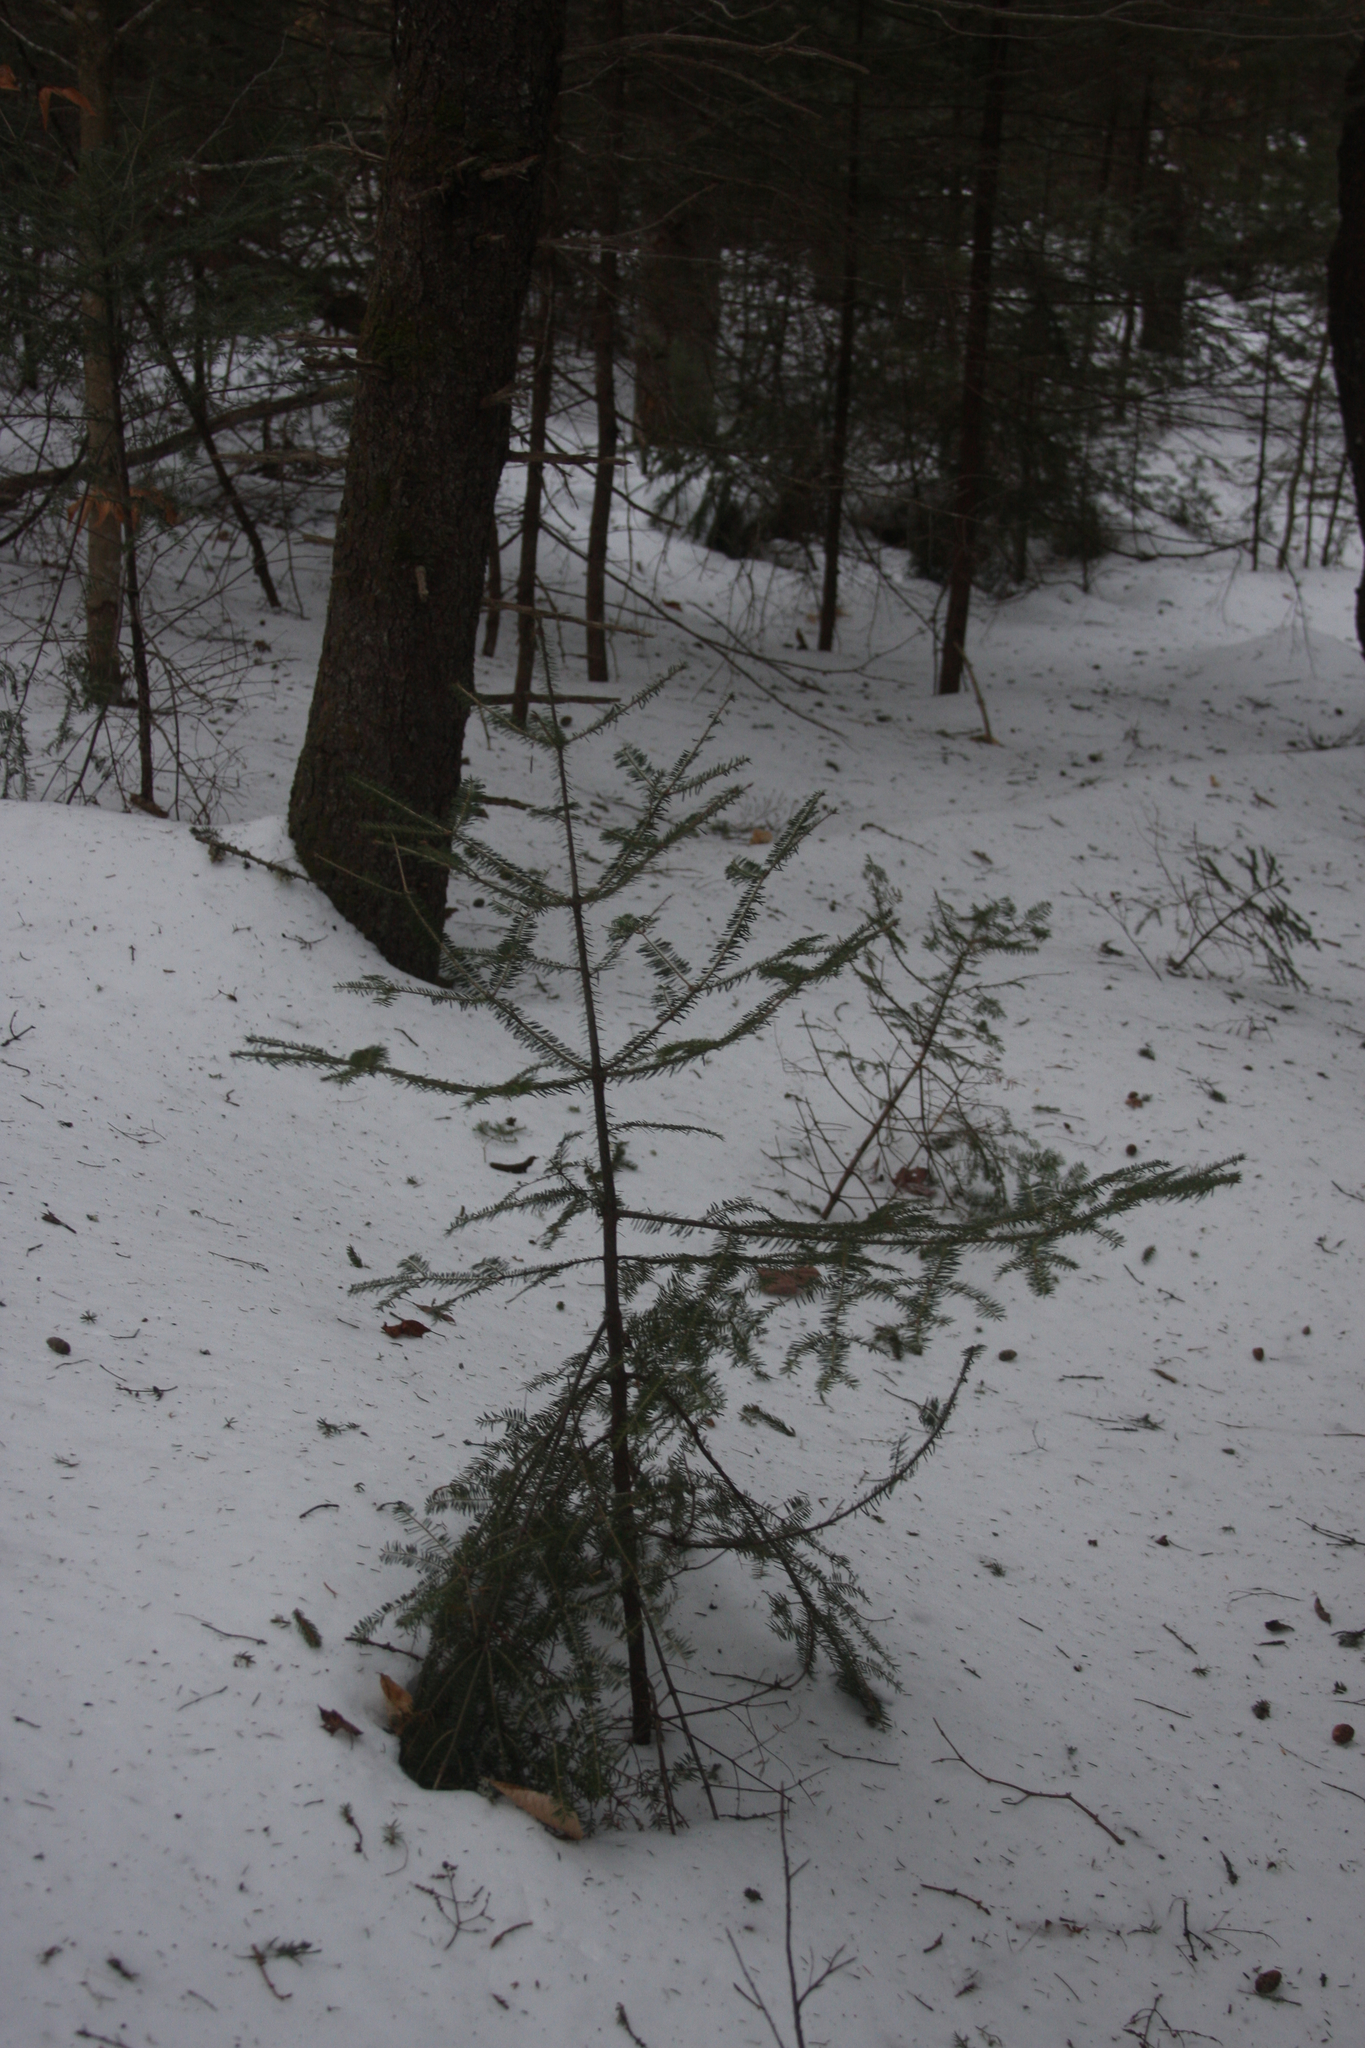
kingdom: Plantae
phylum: Tracheophyta
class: Pinopsida
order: Pinales
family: Pinaceae
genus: Abies
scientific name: Abies balsamea
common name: Balsam fir
